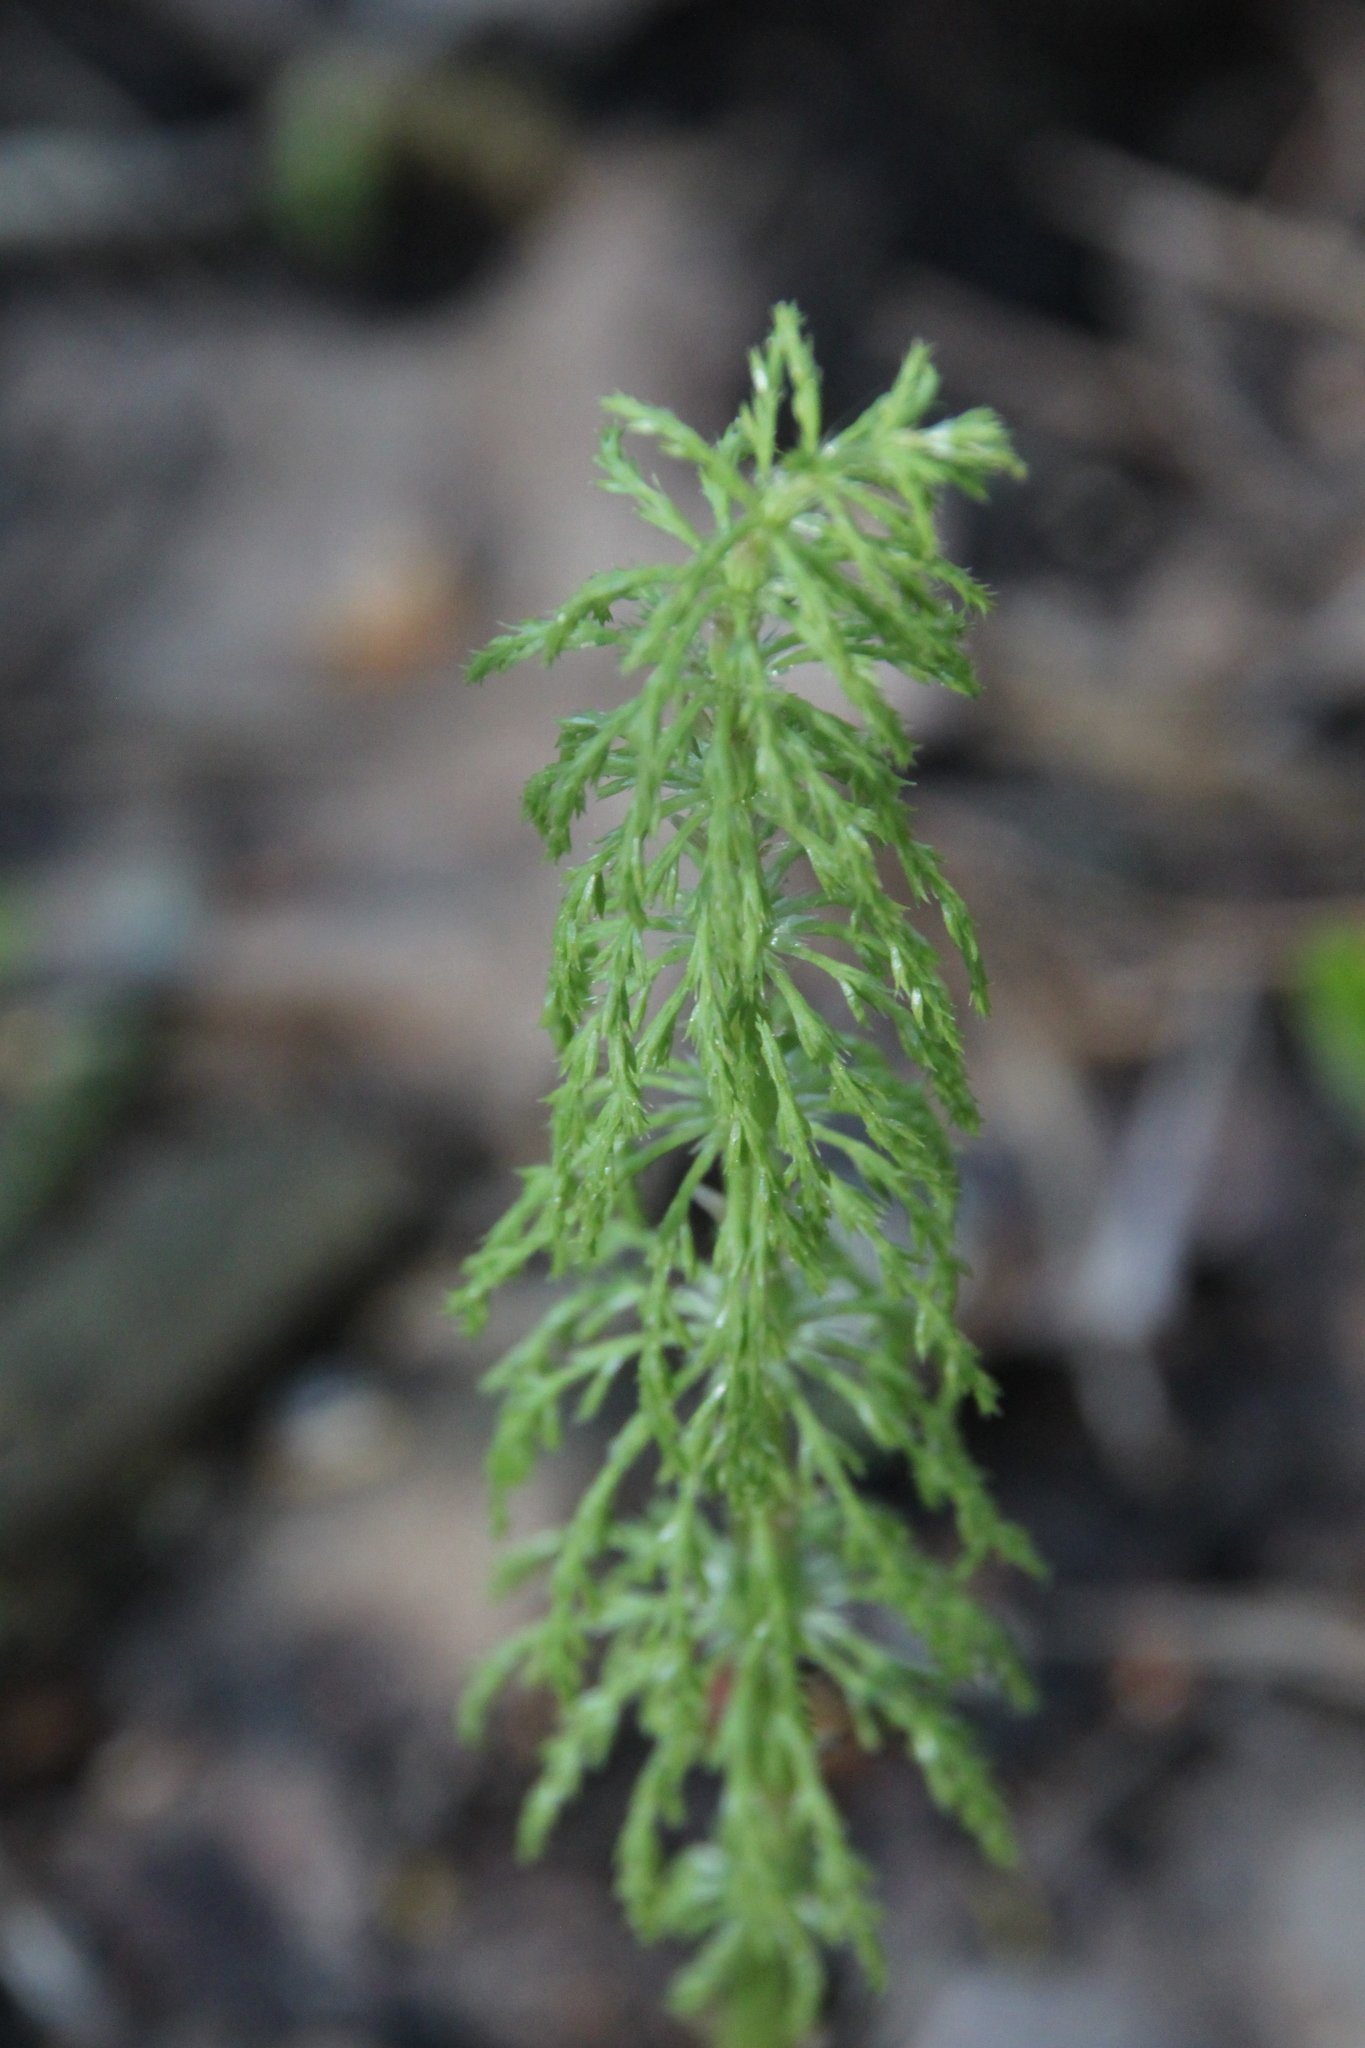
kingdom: Plantae
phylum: Tracheophyta
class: Polypodiopsida
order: Equisetales
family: Equisetaceae
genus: Equisetum
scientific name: Equisetum sylvaticum
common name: Wood horsetail
